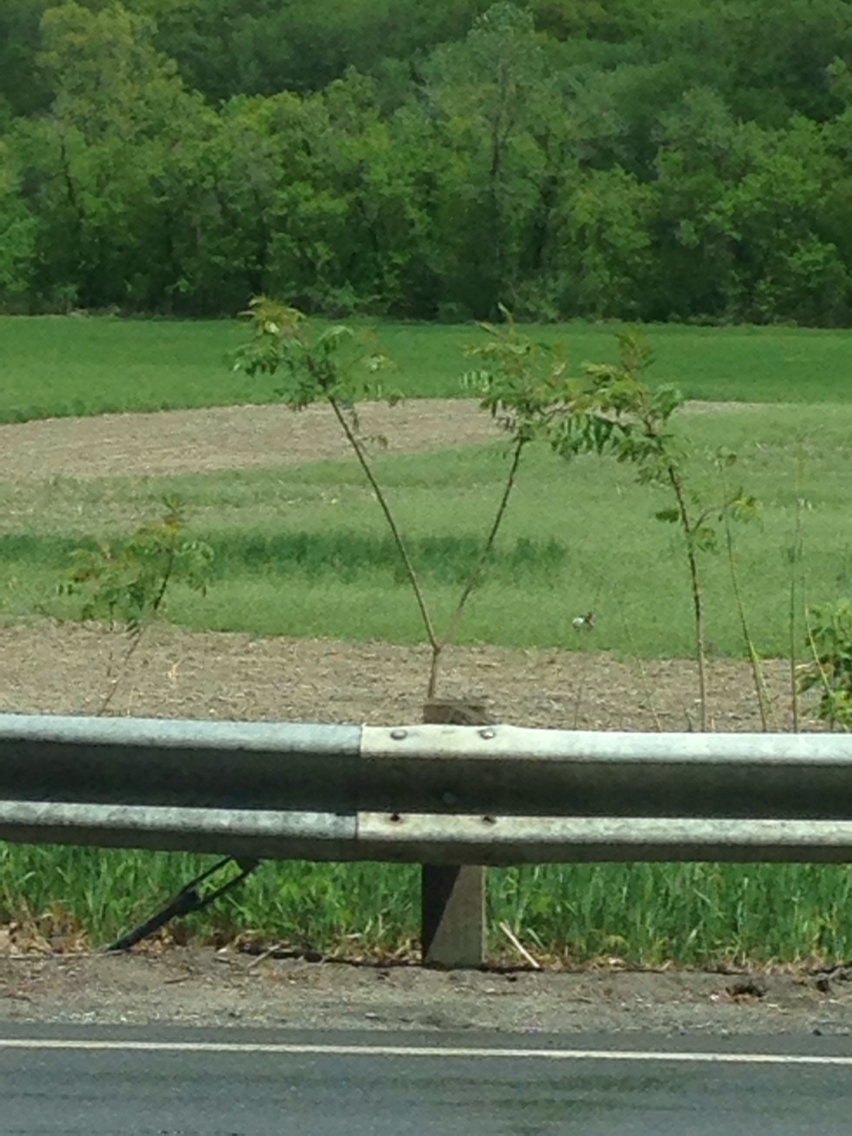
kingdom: Plantae
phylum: Tracheophyta
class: Magnoliopsida
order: Sapindales
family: Anacardiaceae
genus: Rhus
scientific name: Rhus typhina
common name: Staghorn sumac
